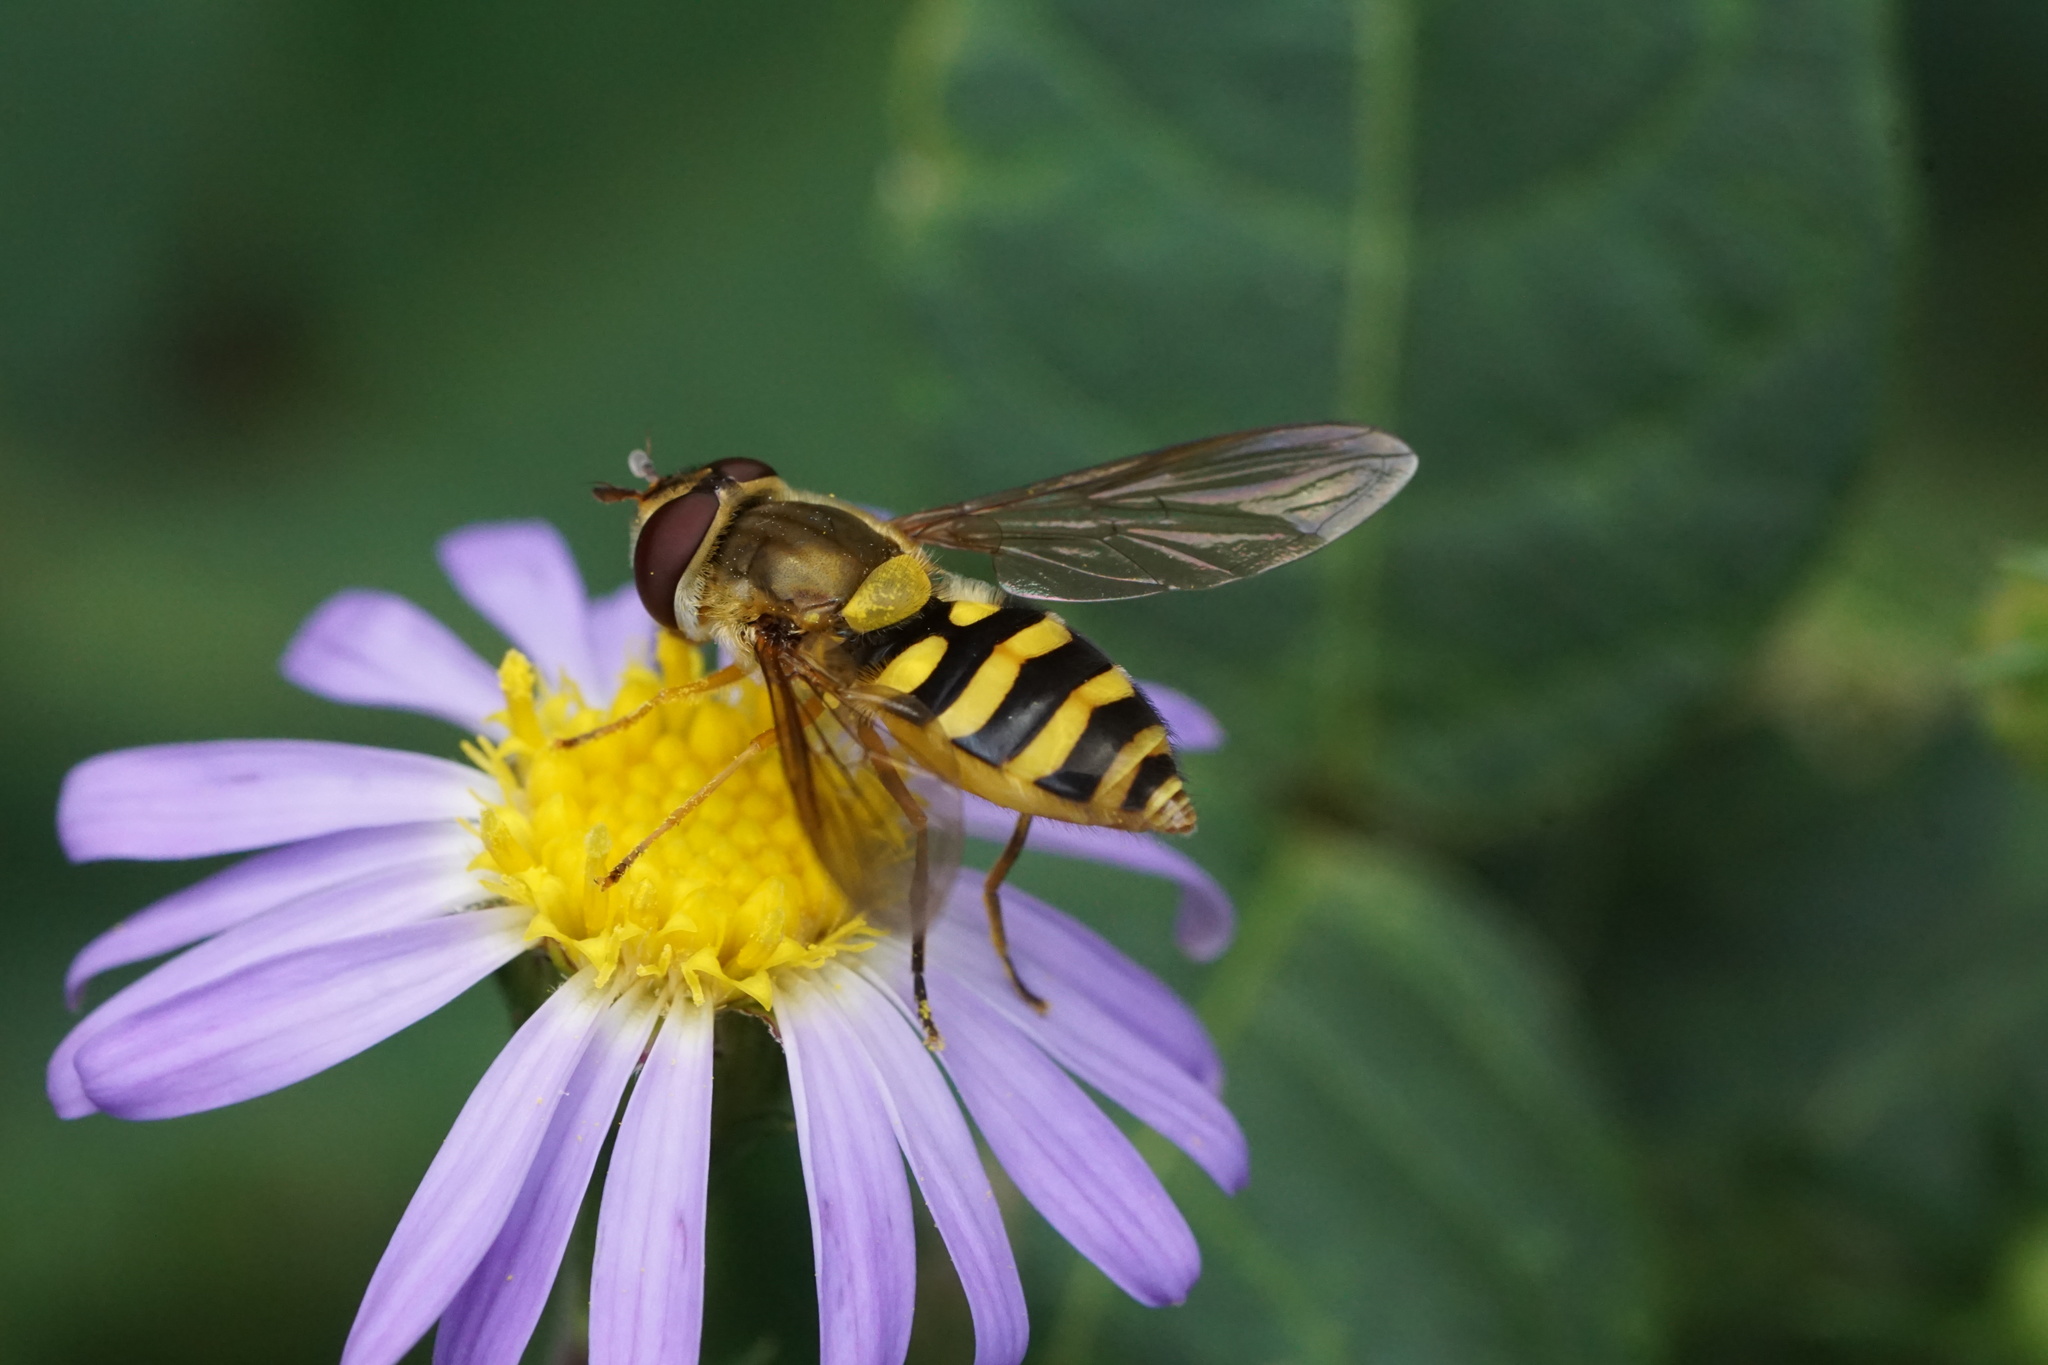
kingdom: Animalia
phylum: Arthropoda
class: Insecta
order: Diptera
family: Syrphidae
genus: Syrphus
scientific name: Syrphus rectus
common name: Yellow-legged flower fly
